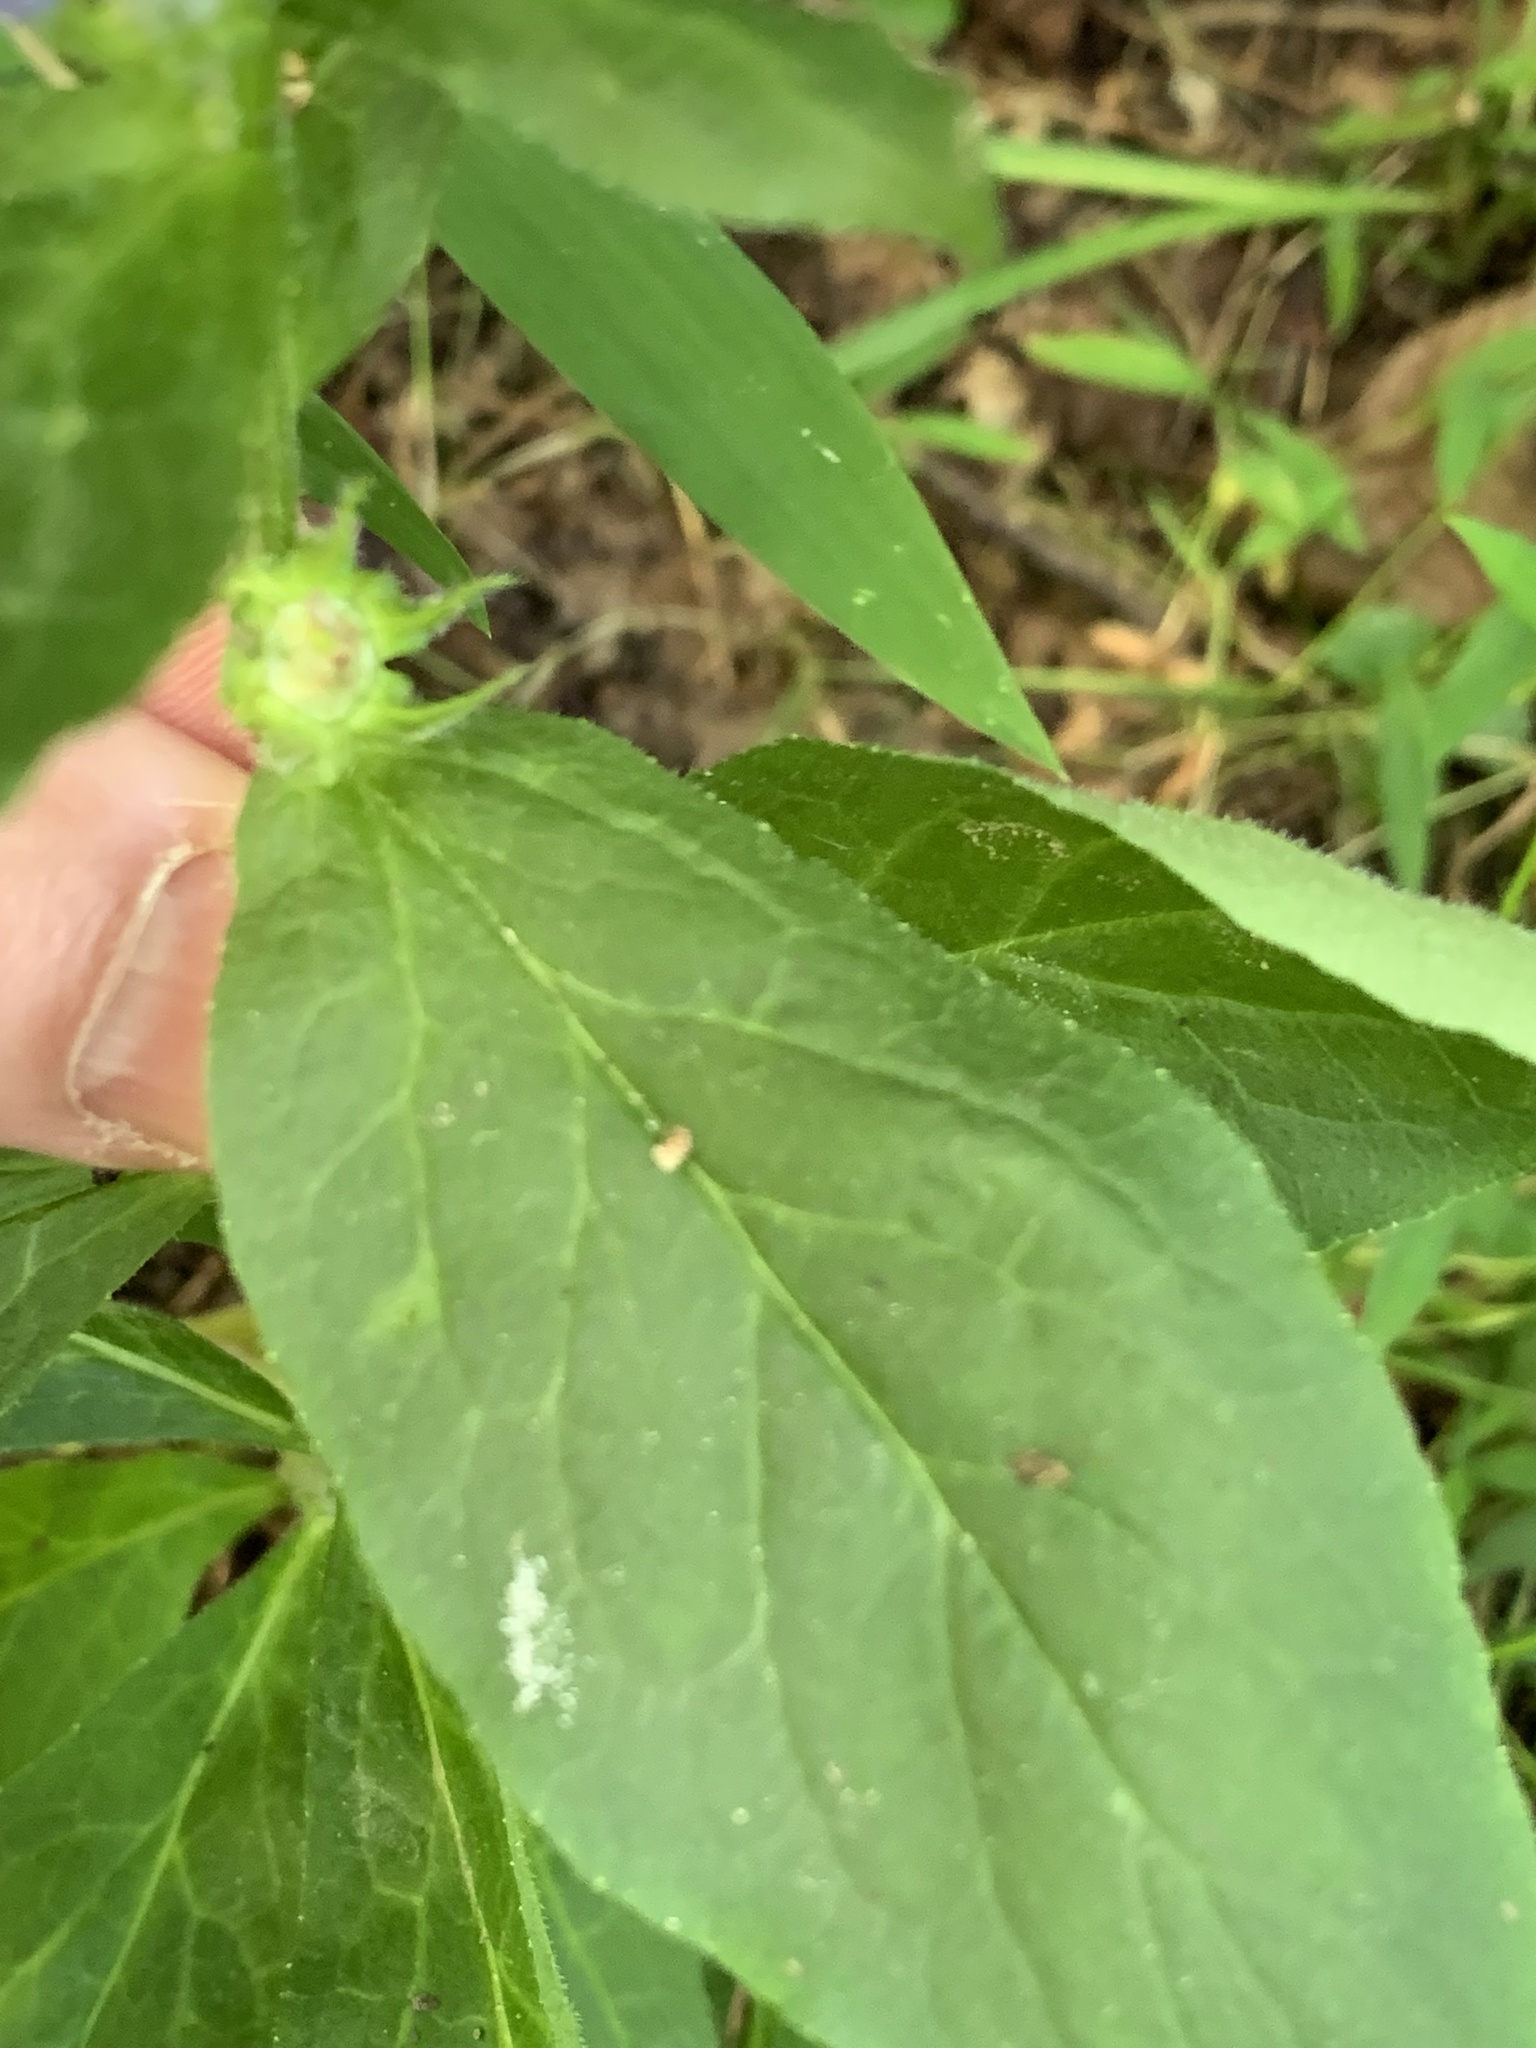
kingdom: Plantae
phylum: Tracheophyta
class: Magnoliopsida
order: Asterales
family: Campanulaceae
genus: Lobelia
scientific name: Lobelia siphilitica
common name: Great lobelia
